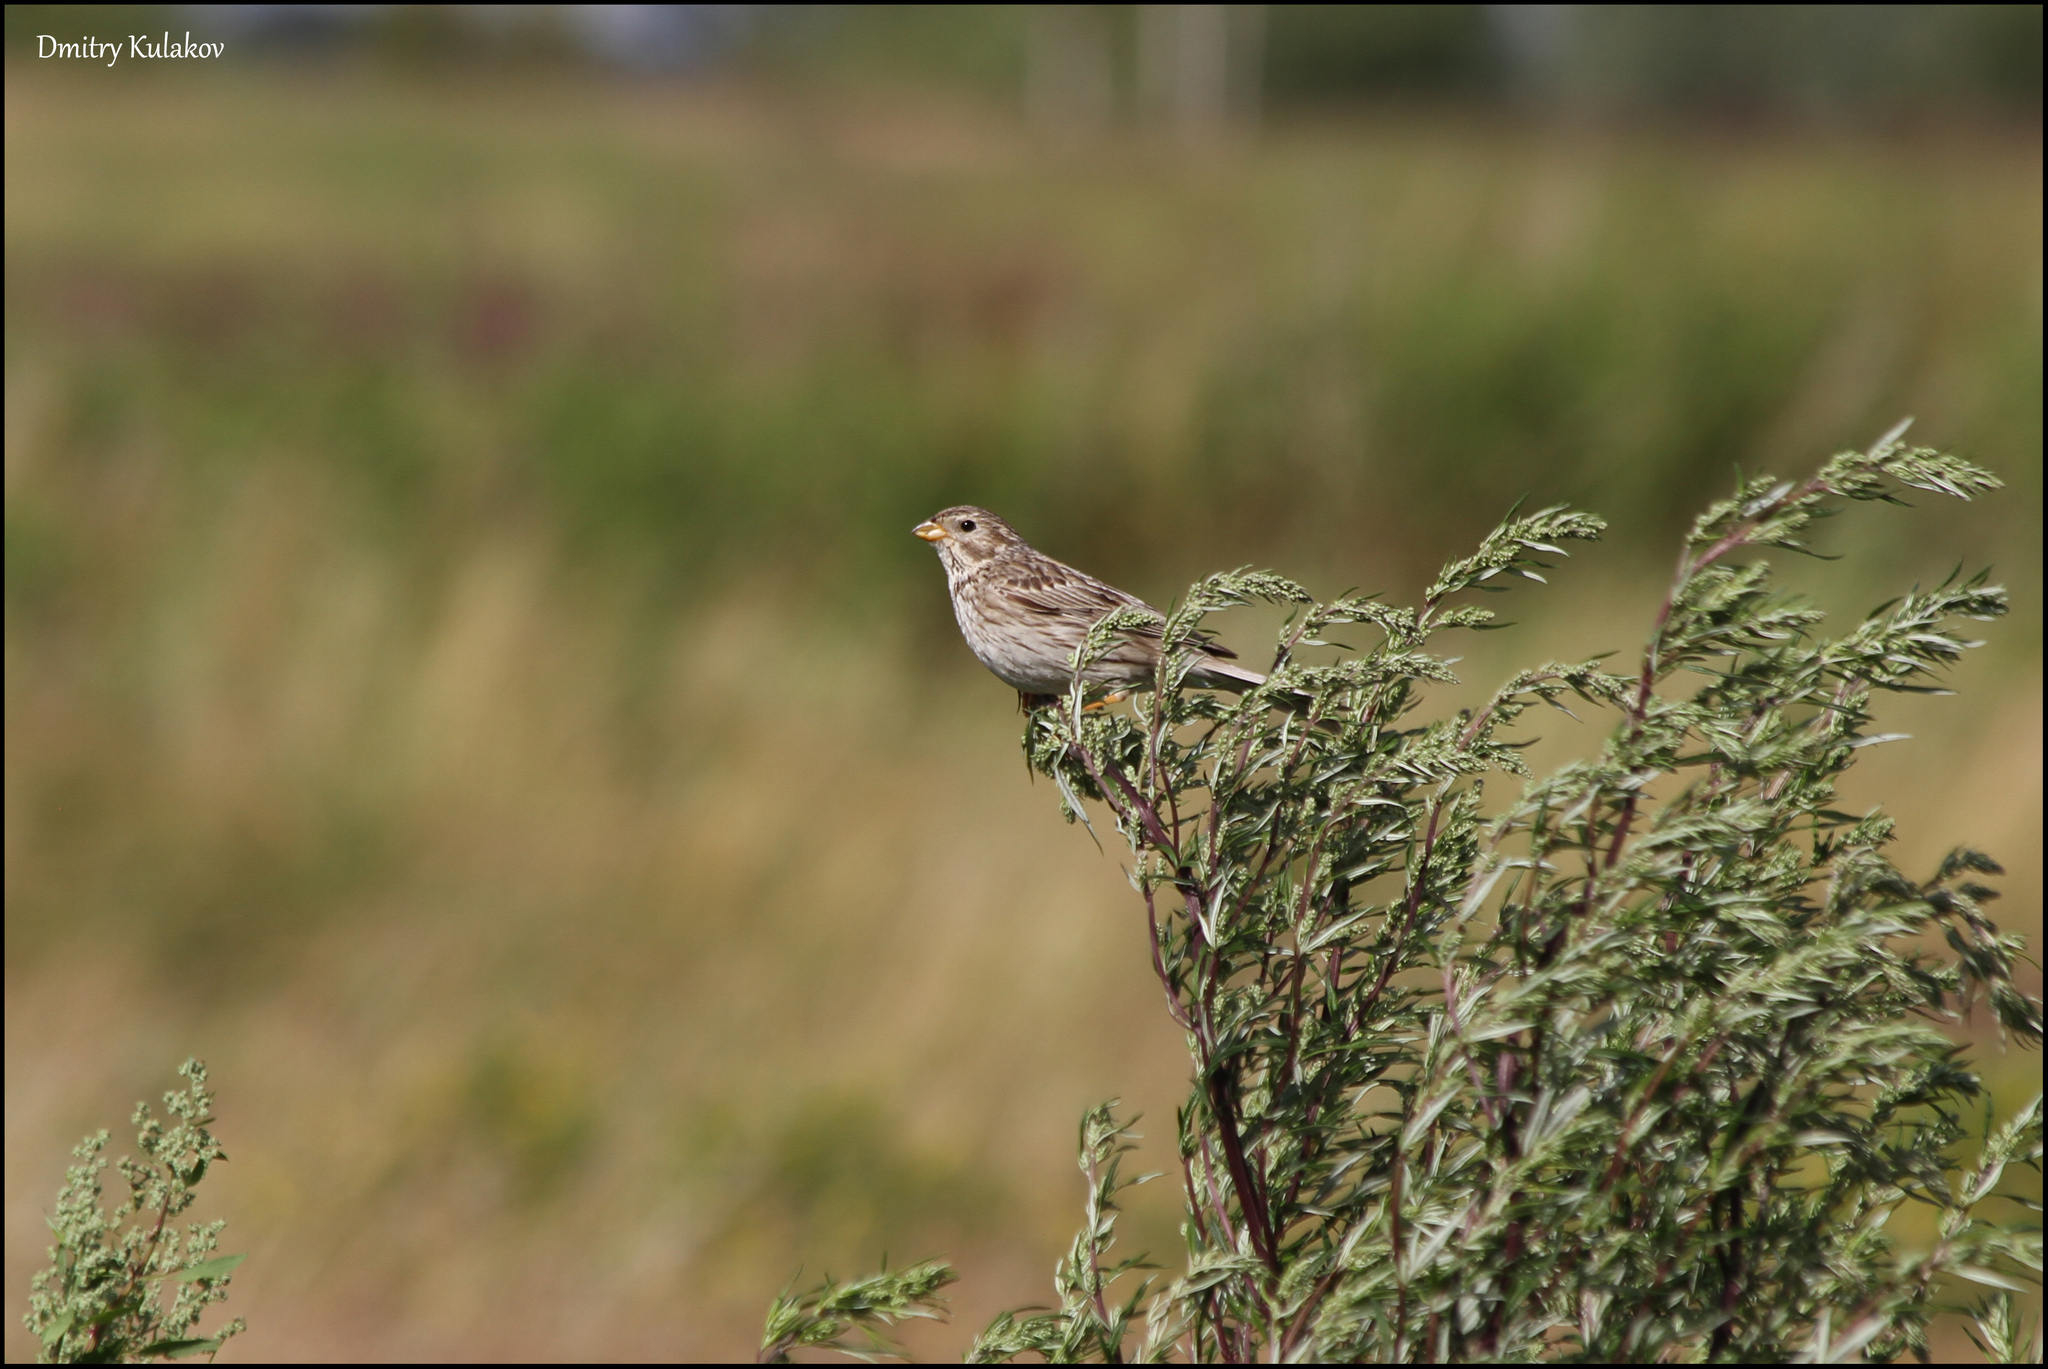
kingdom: Animalia
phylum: Chordata
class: Aves
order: Passeriformes
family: Emberizidae
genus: Emberiza
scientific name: Emberiza calandra
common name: Corn bunting
